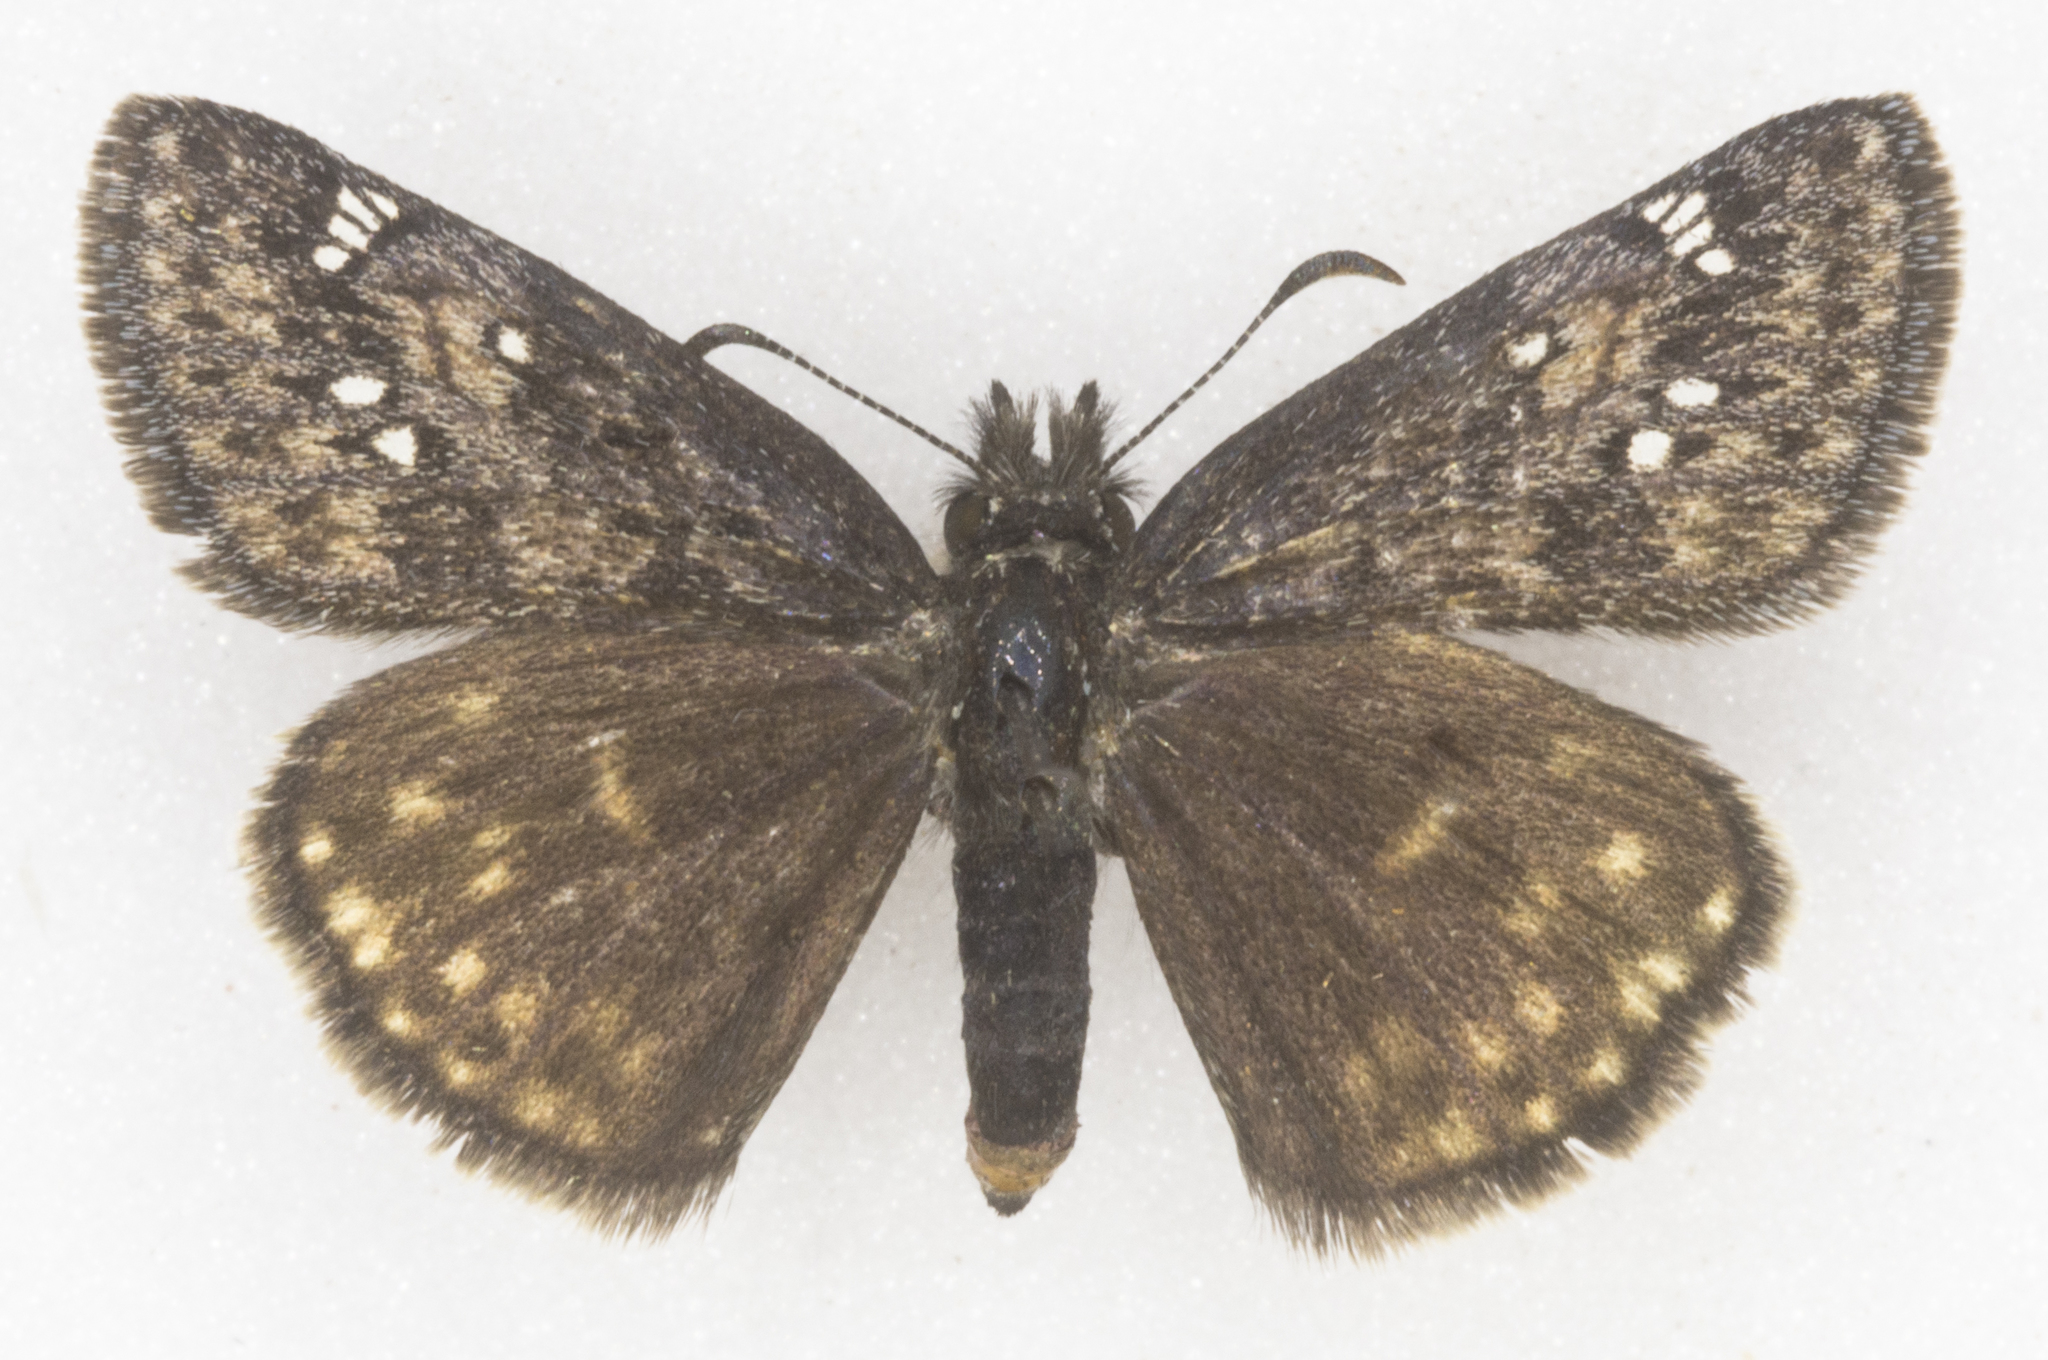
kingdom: Animalia
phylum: Arthropoda
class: Insecta
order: Lepidoptera
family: Hesperiidae
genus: Erynnis
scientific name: Erynnis persius
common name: Persius duskywing
